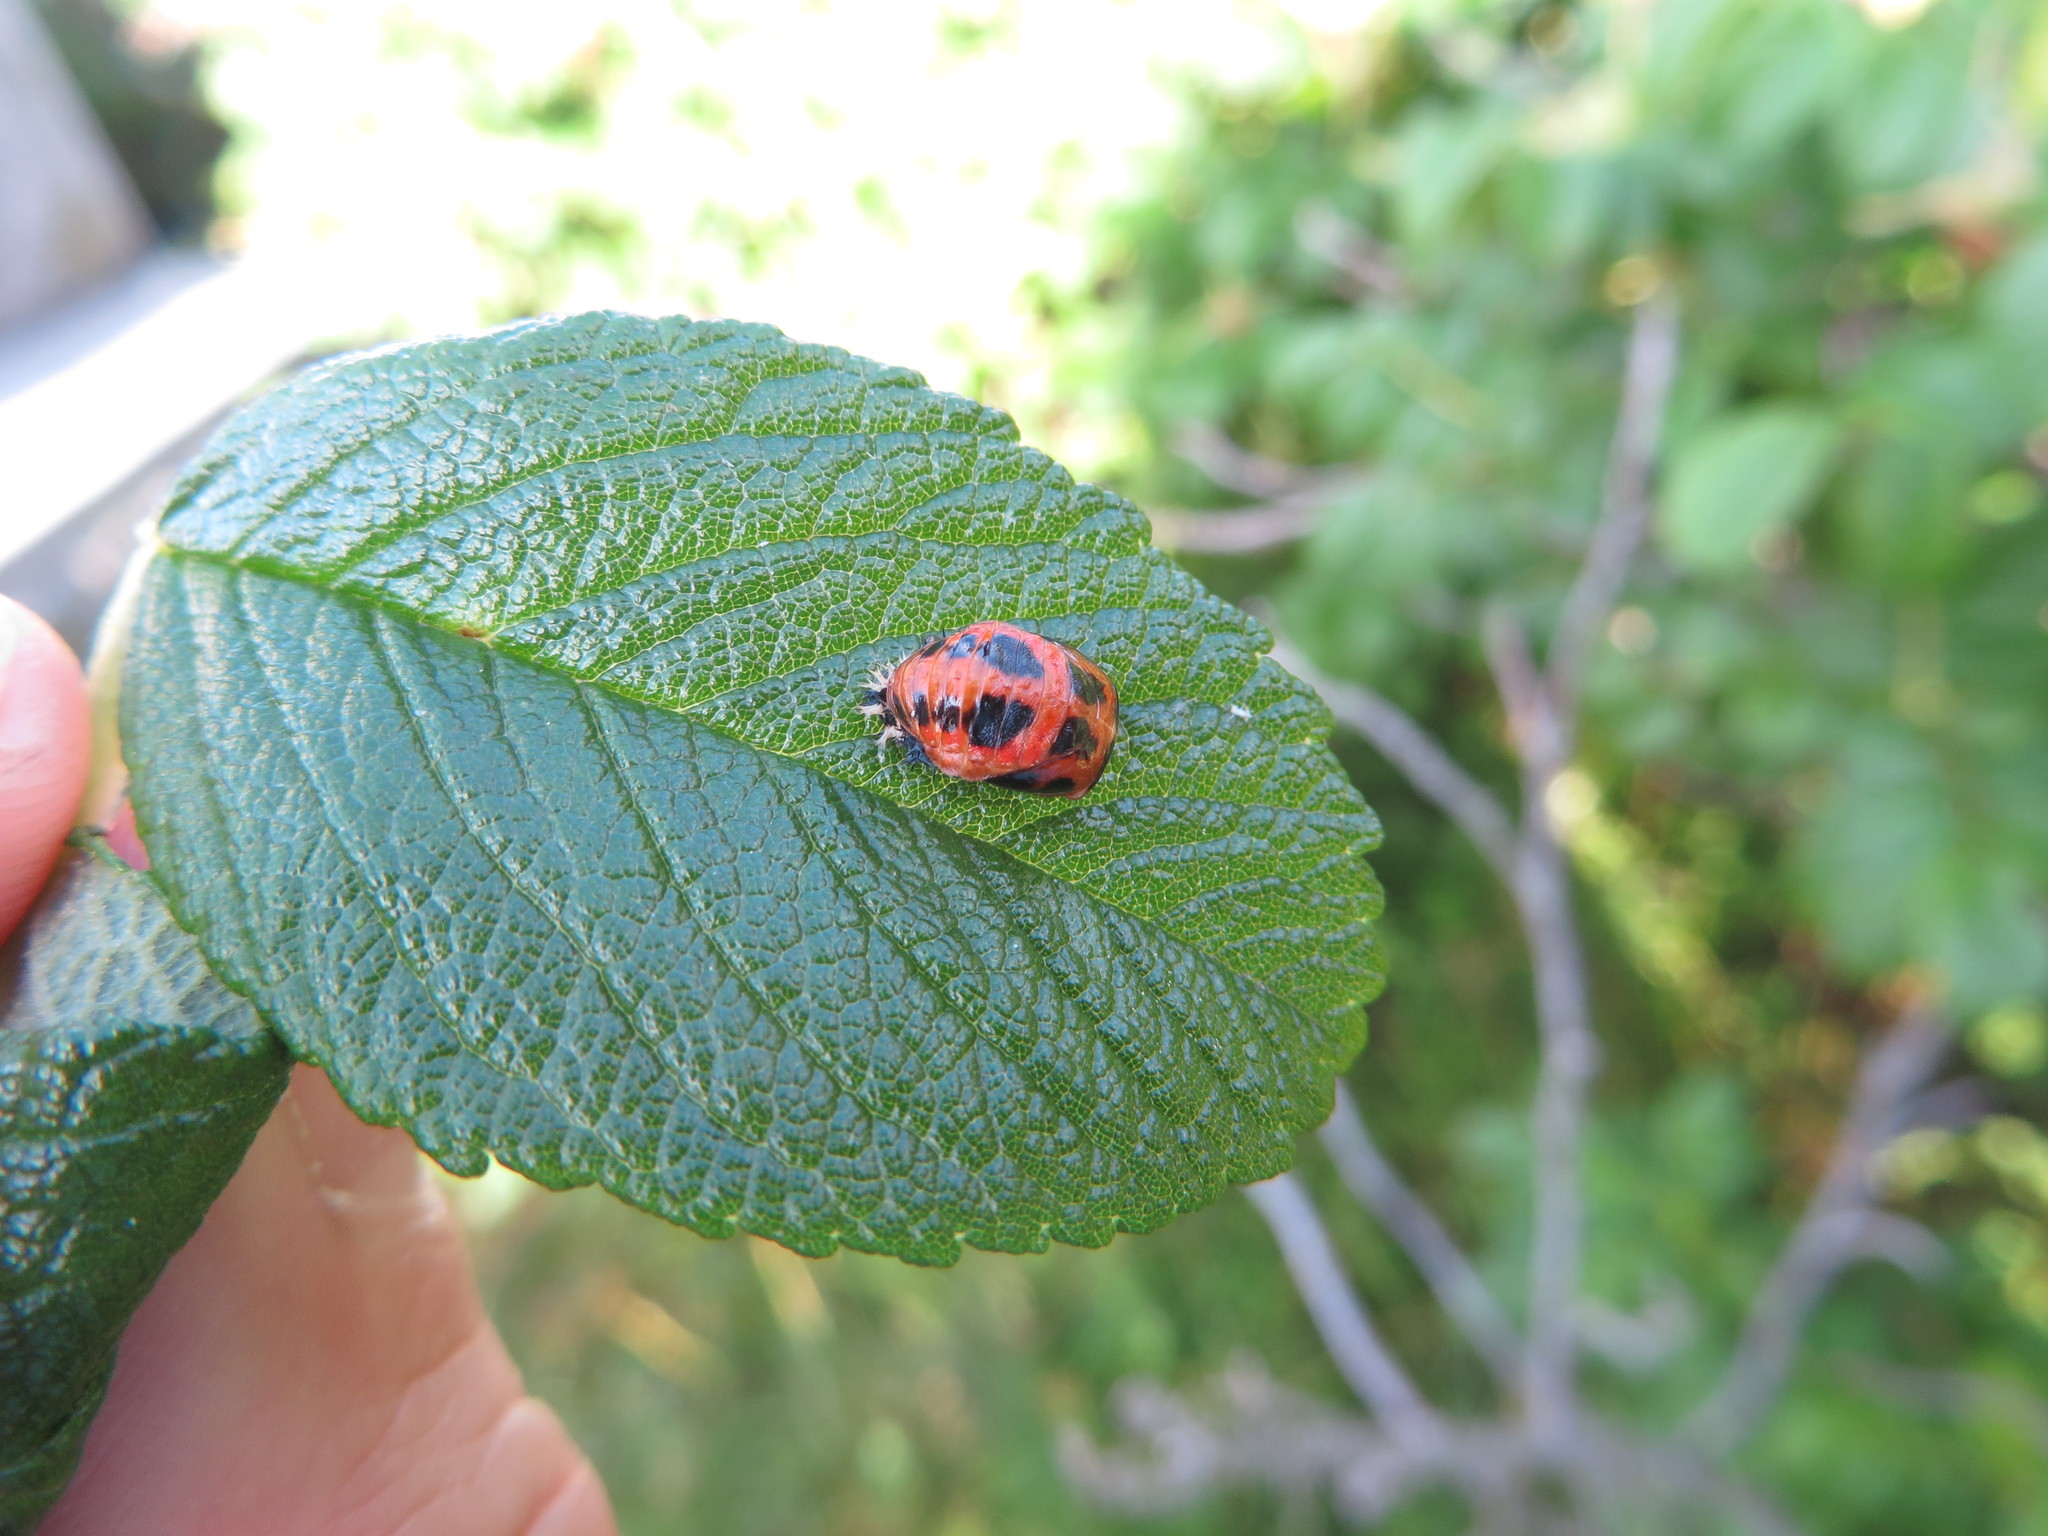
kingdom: Animalia
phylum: Arthropoda
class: Insecta
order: Coleoptera
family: Coccinellidae
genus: Harmonia
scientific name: Harmonia axyridis
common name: Harlequin ladybird
